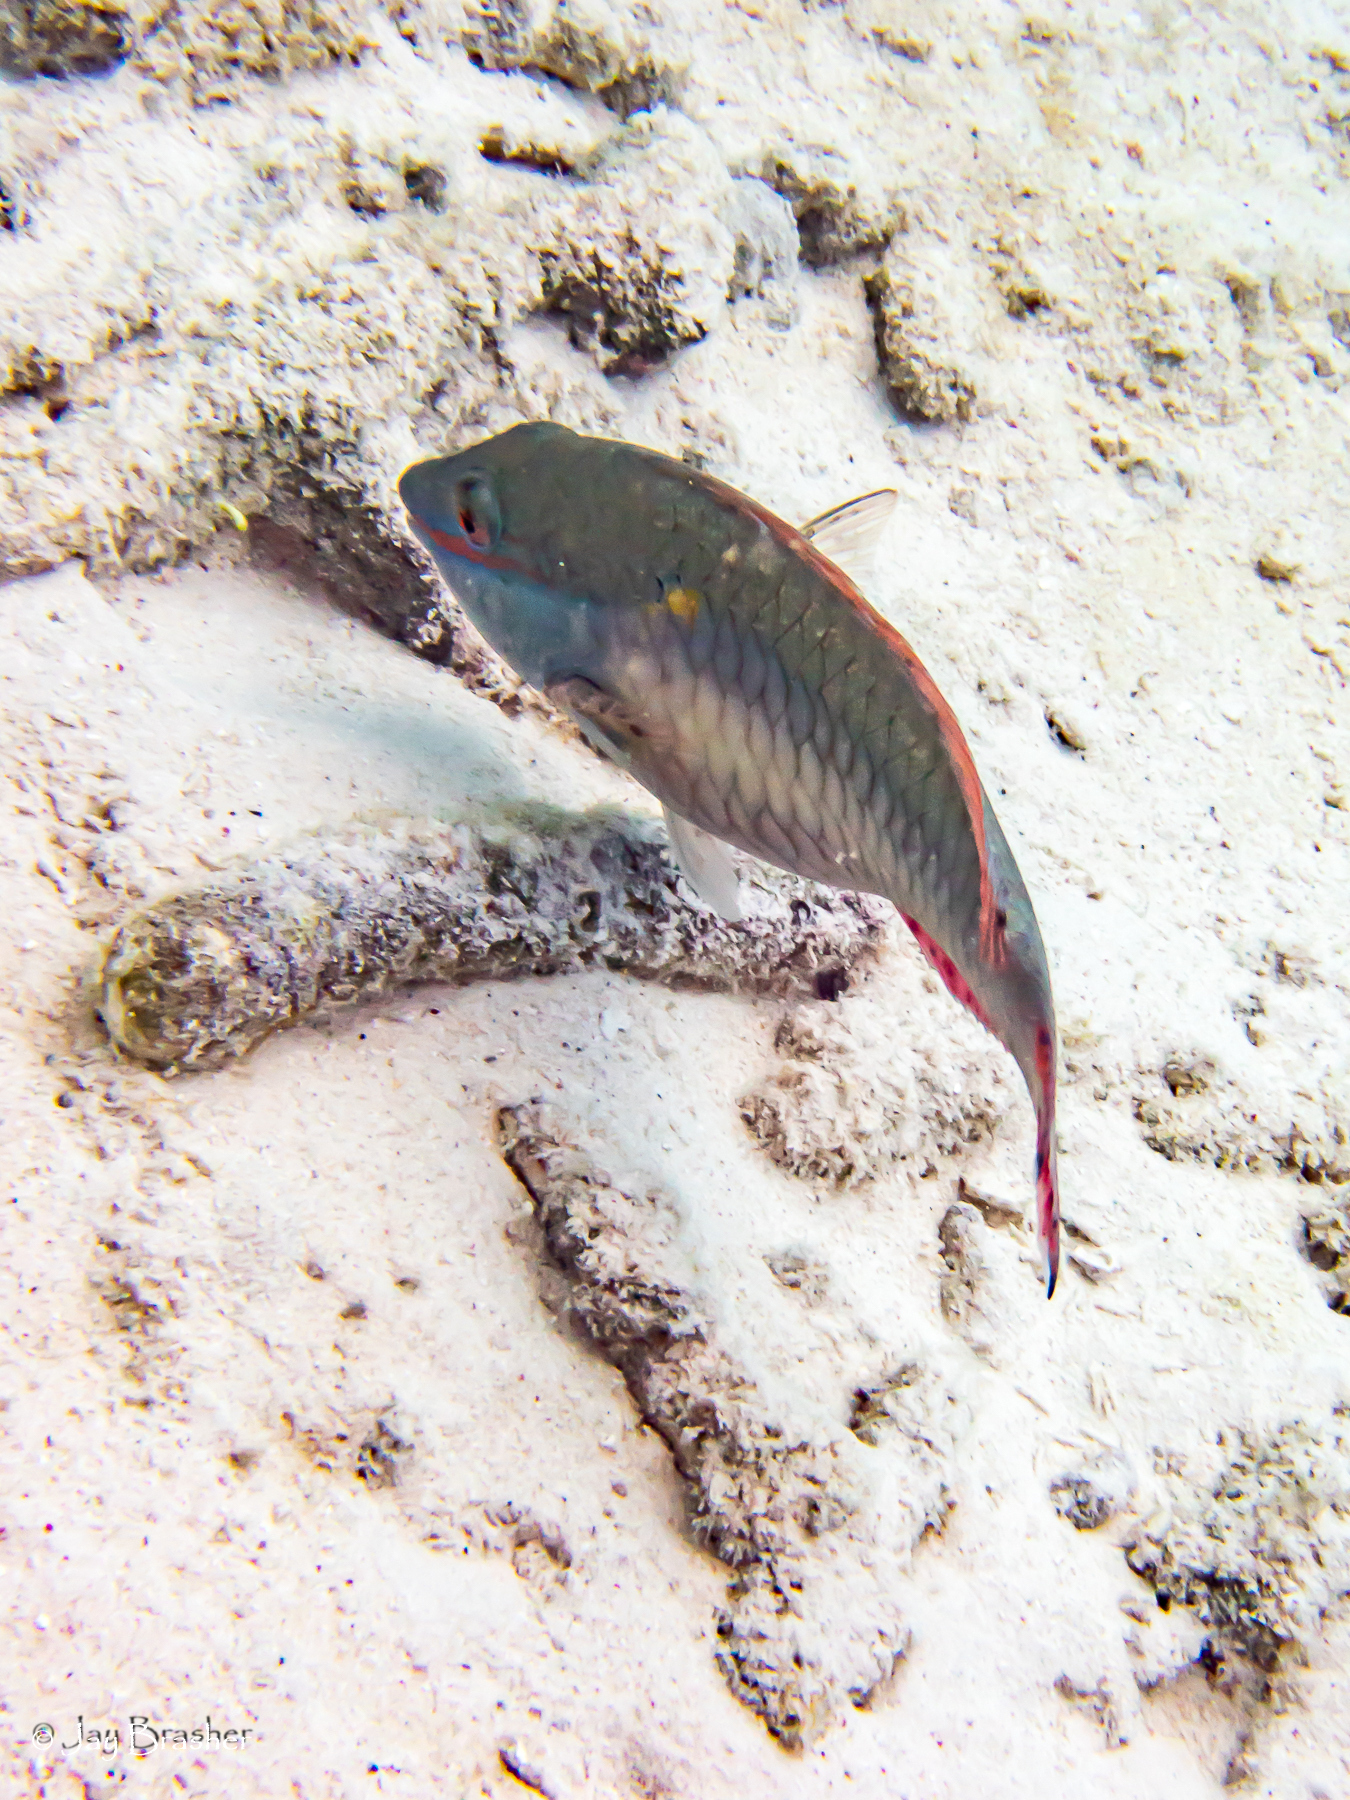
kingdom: Animalia
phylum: Chordata
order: Perciformes
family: Scaridae
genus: Sparisoma
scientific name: Sparisoma aurofrenatum
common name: Redband parrotfish
